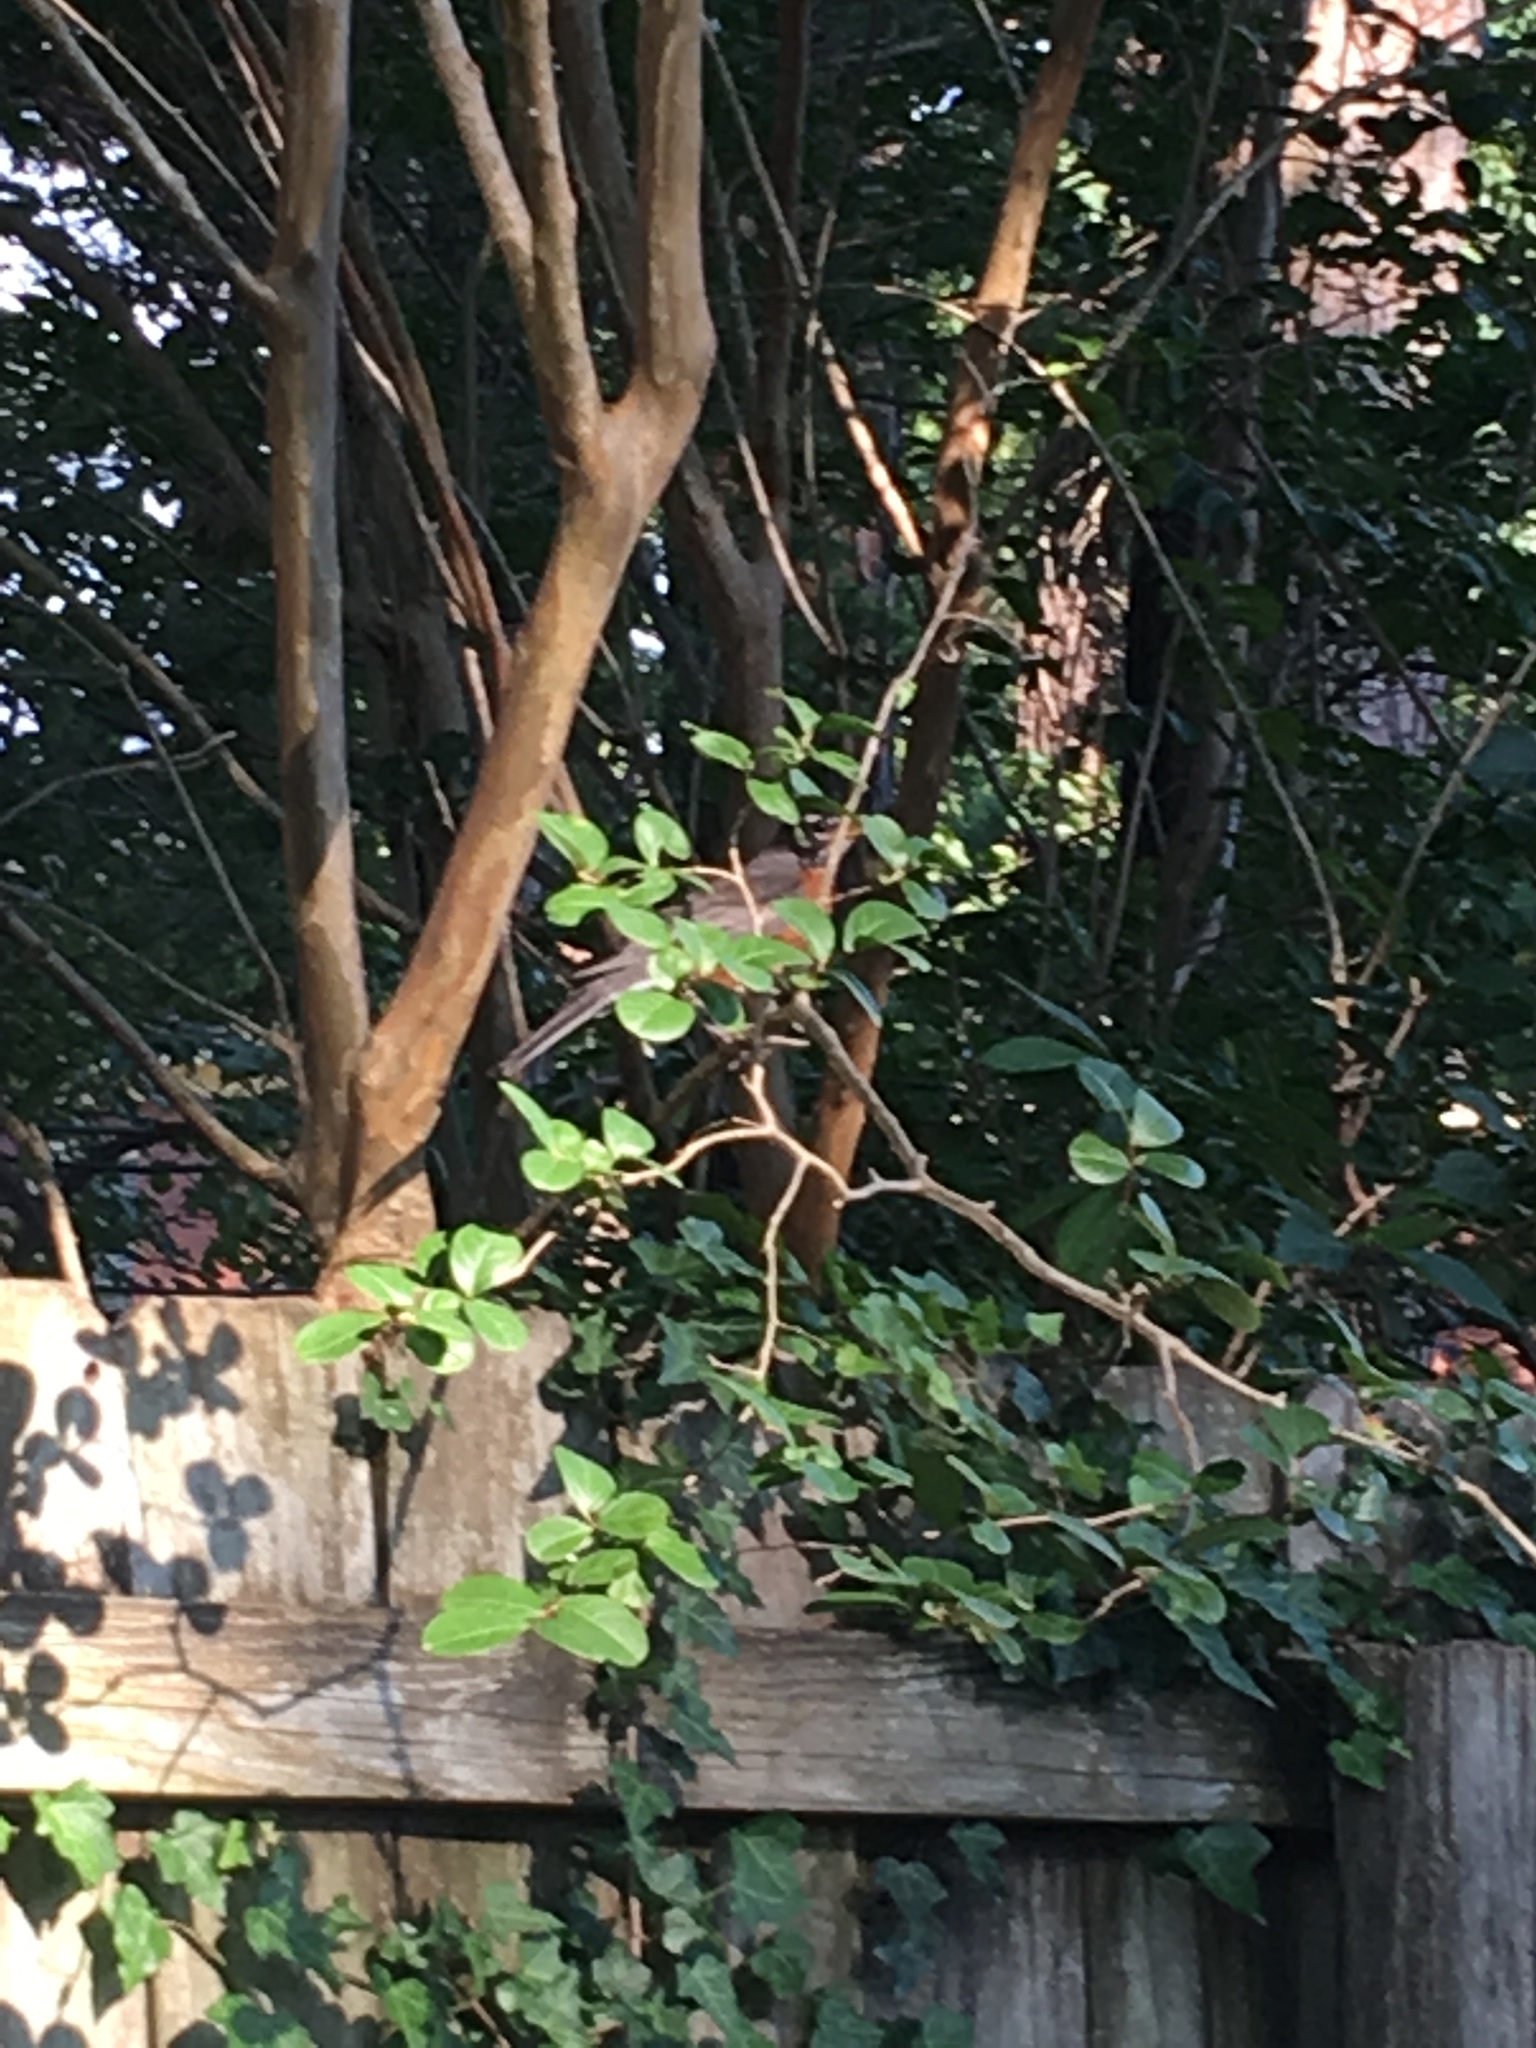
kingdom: Animalia
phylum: Chordata
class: Aves
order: Passeriformes
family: Turdidae
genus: Turdus
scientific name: Turdus migratorius
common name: American robin
